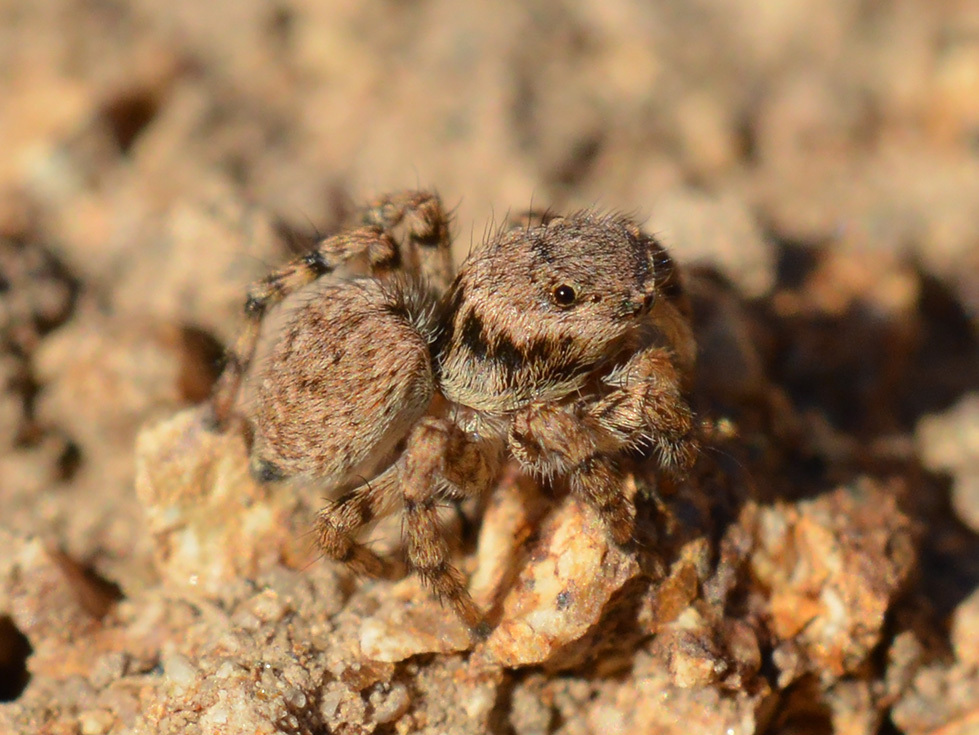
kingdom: Animalia
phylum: Arthropoda
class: Arachnida
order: Araneae
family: Salticidae
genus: Aelurillus
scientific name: Aelurillus v-insignitus
